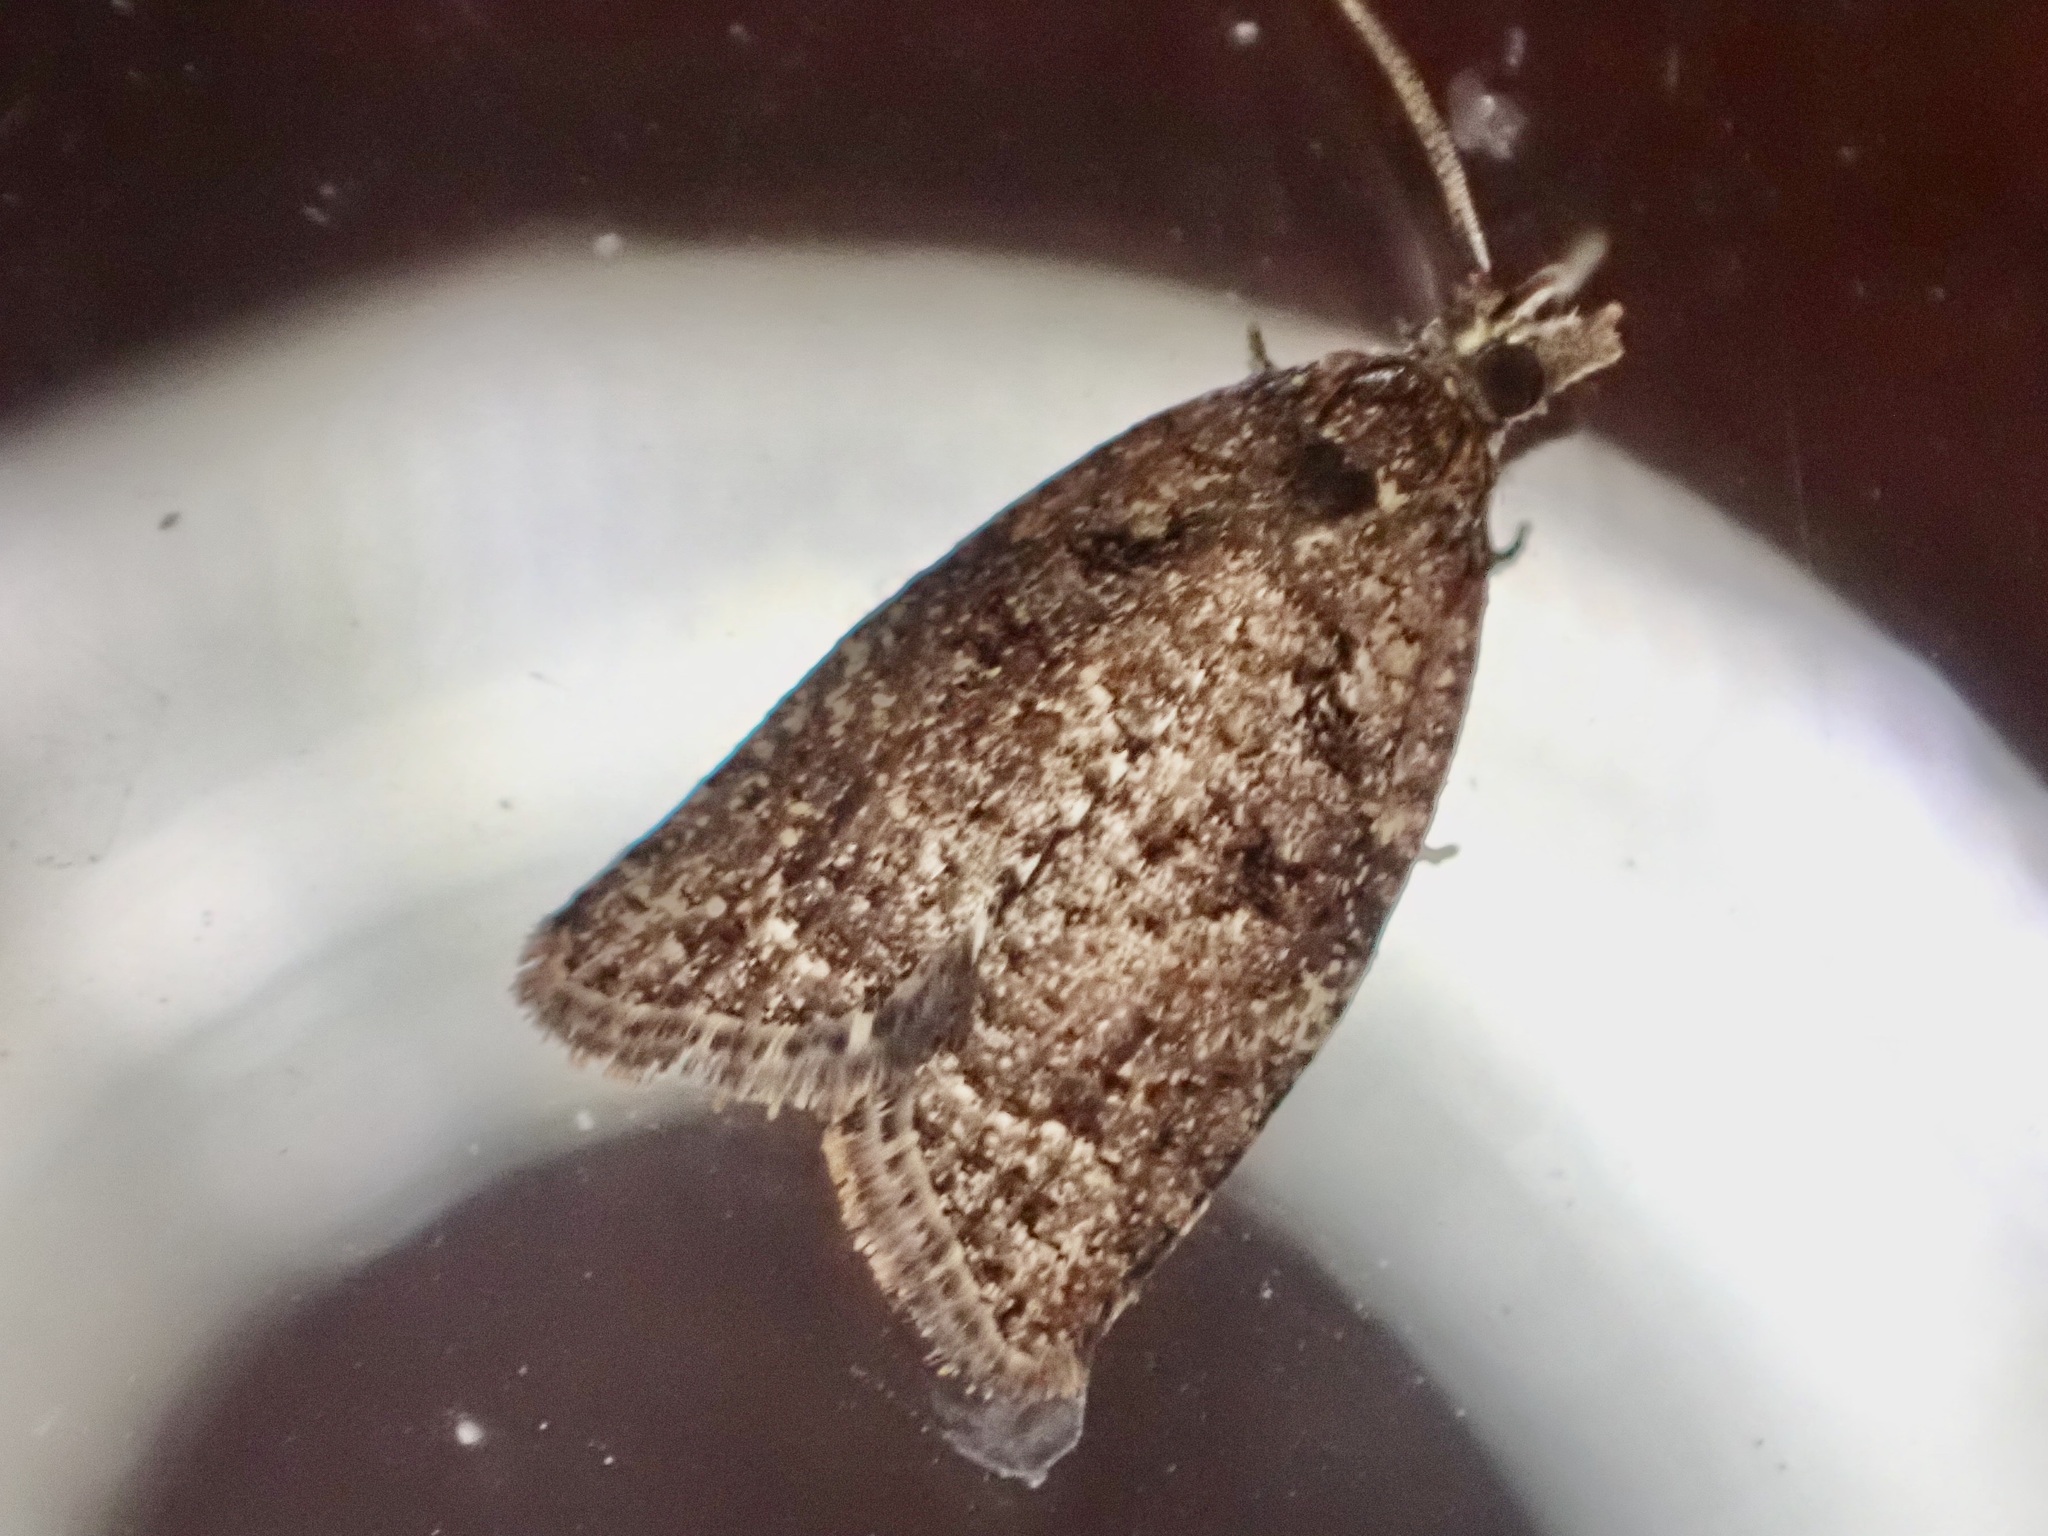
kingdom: Animalia
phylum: Arthropoda
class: Insecta
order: Lepidoptera
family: Tortricidae
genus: Capua
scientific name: Capua intractana
